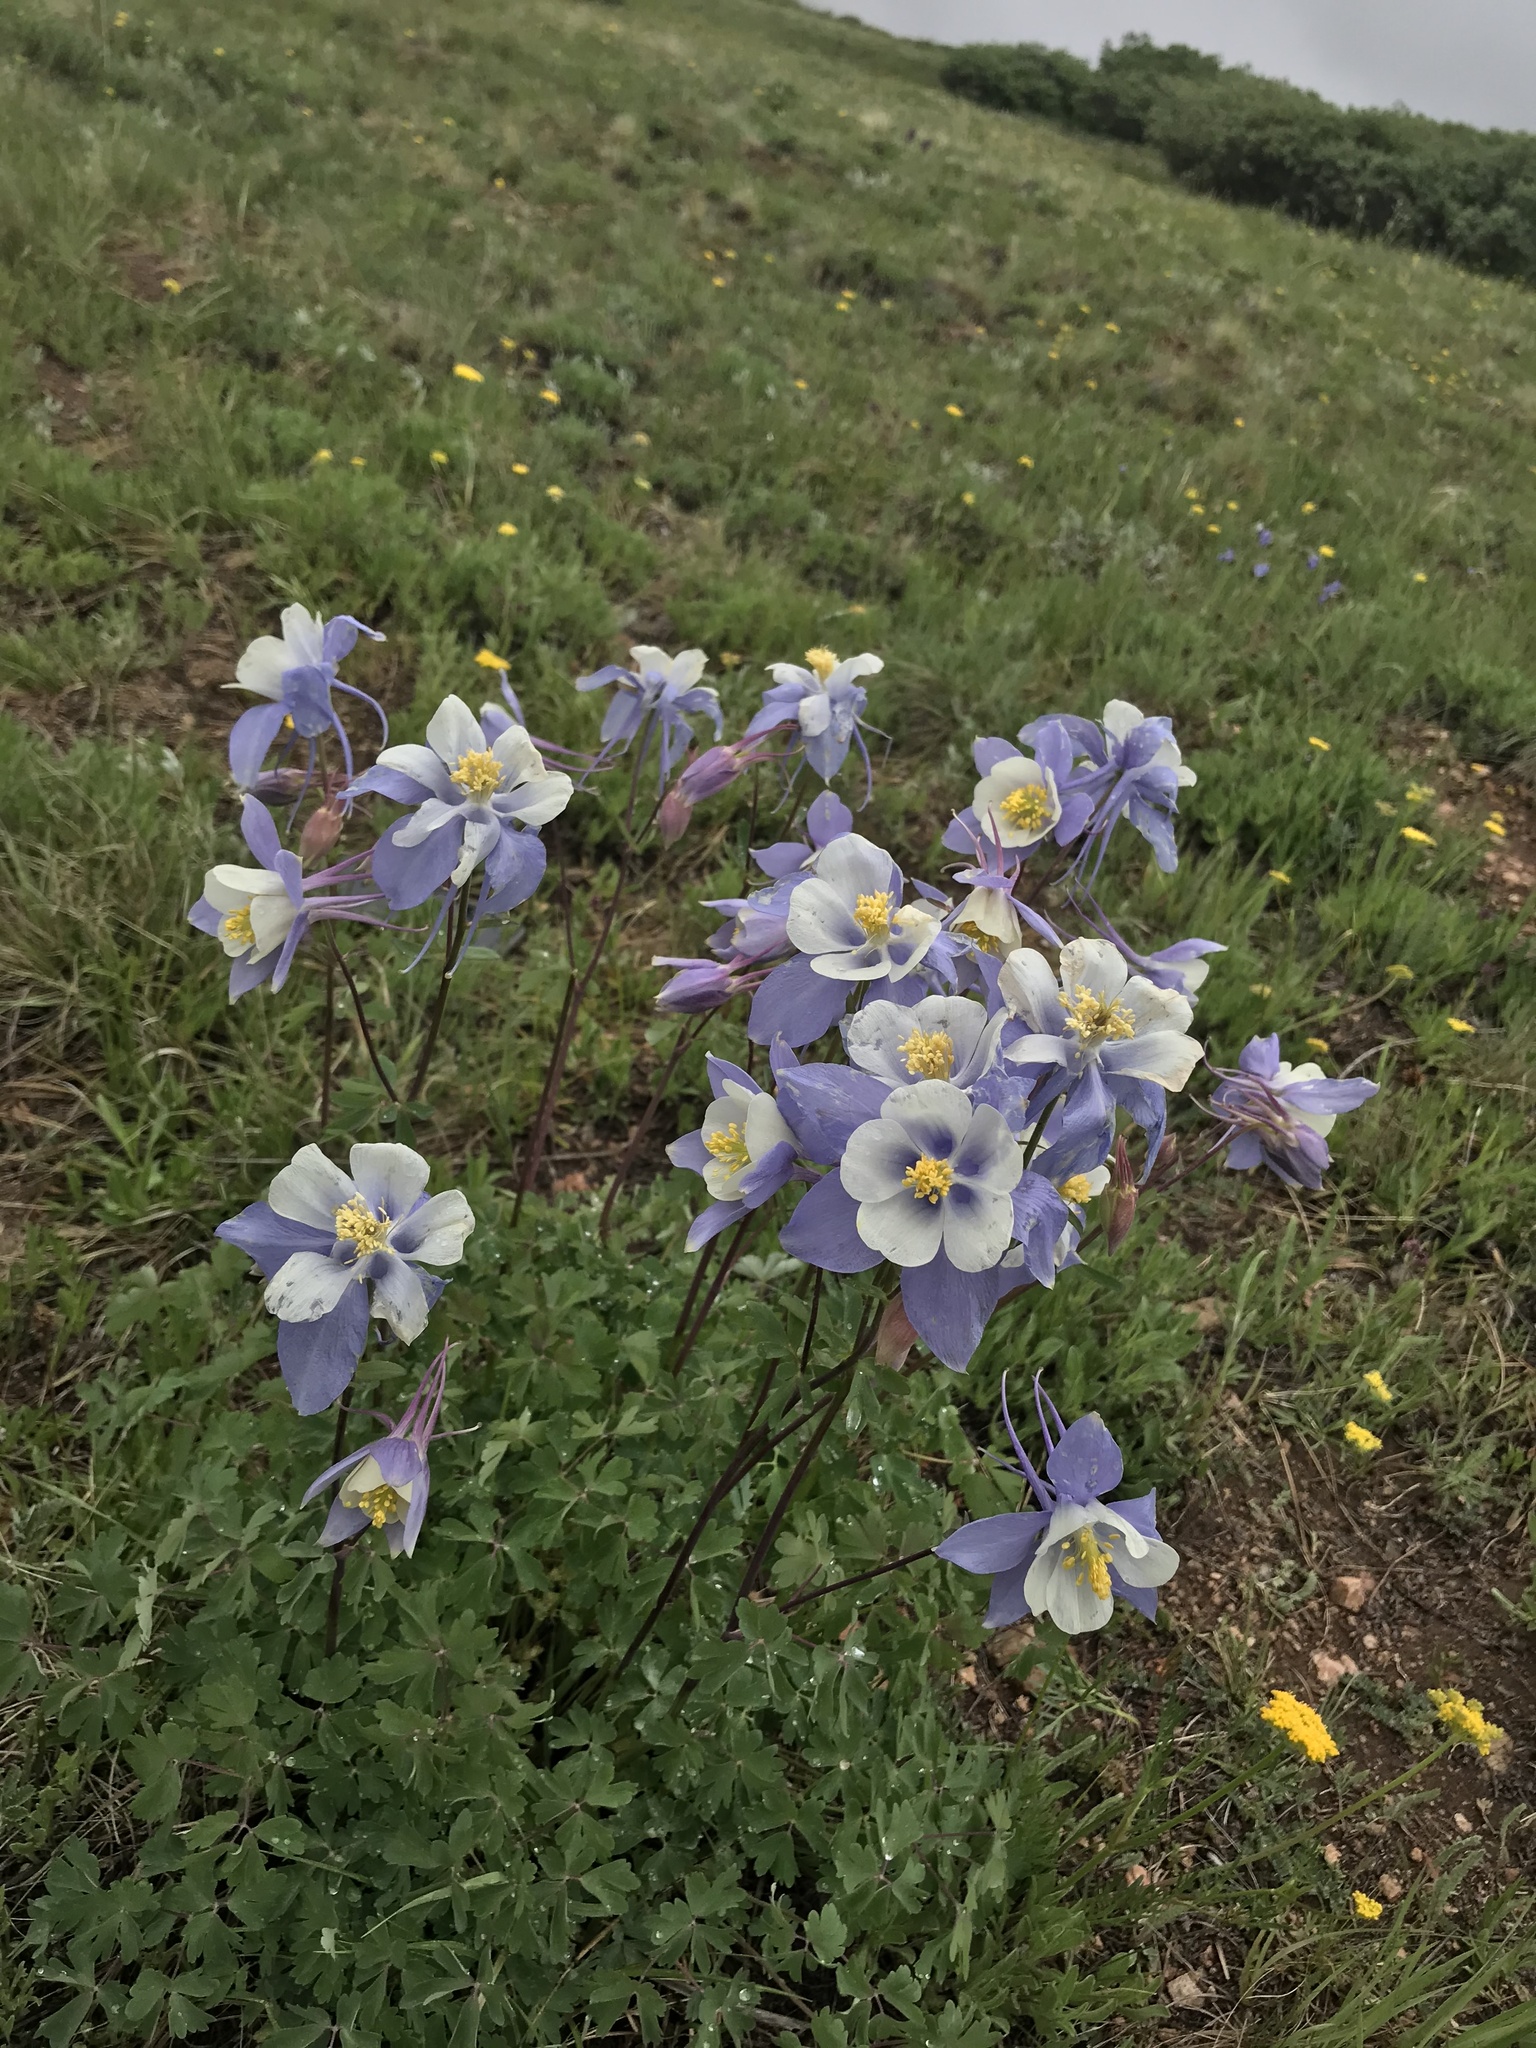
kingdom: Plantae
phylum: Tracheophyta
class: Magnoliopsida
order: Ranunculales
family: Ranunculaceae
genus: Aquilegia
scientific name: Aquilegia coerulea
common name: Rocky mountain columbine
